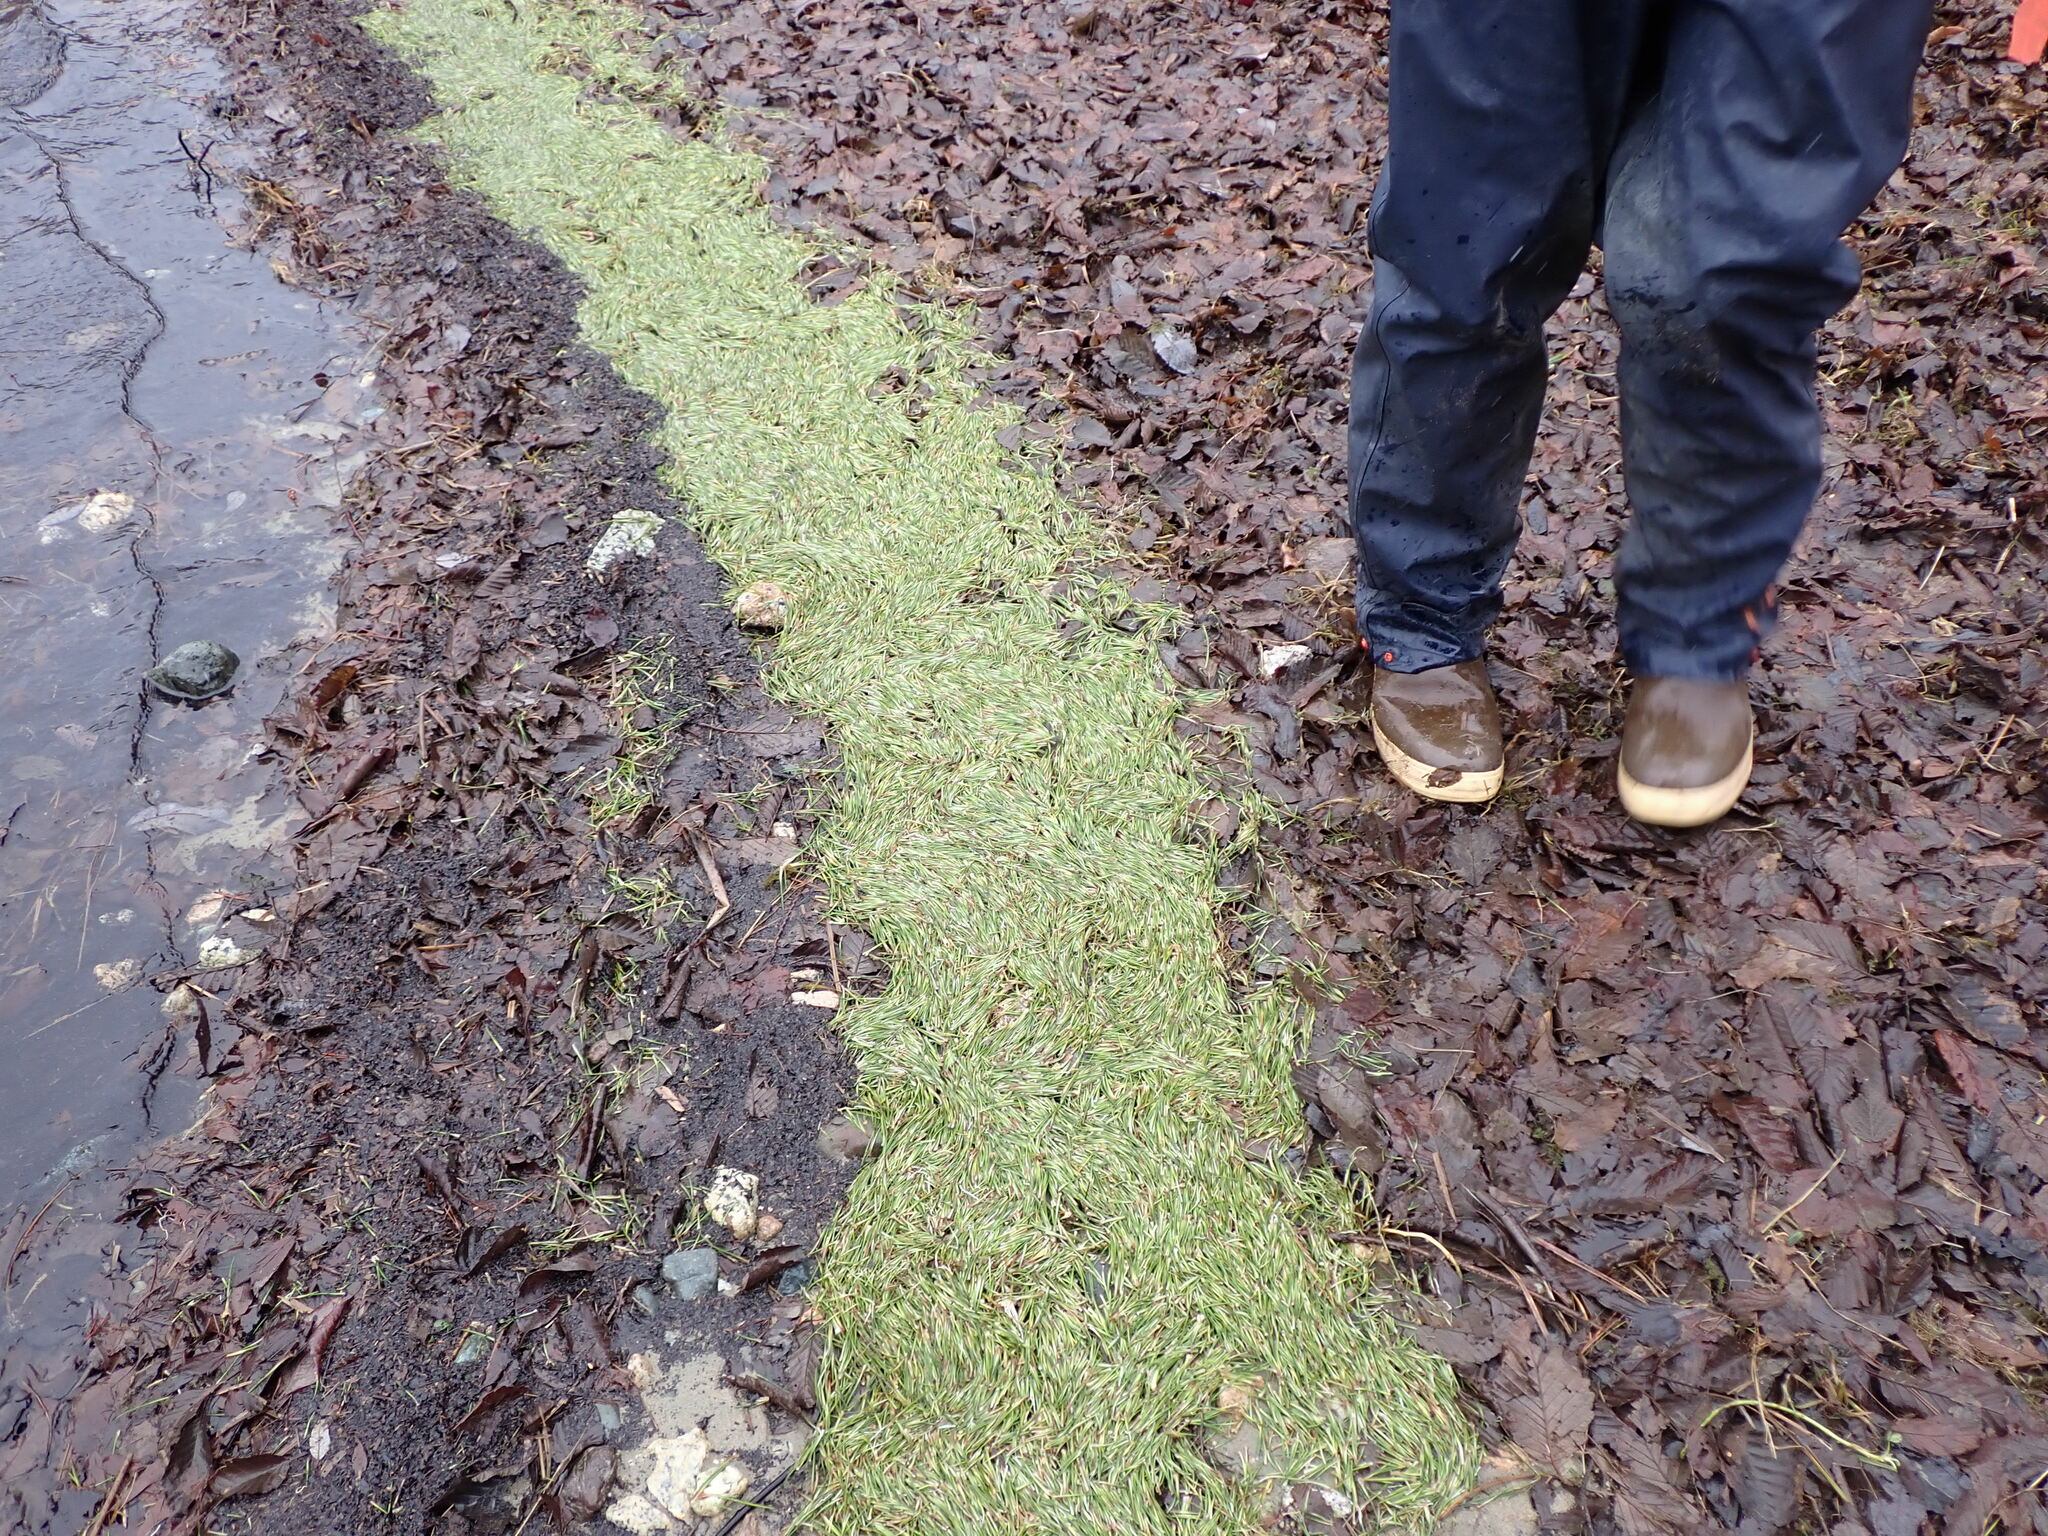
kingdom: Plantae
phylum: Tracheophyta
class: Pinopsida
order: Pinales
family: Pinaceae
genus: Pinus
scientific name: Pinus contorta
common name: Lodgepole pine
